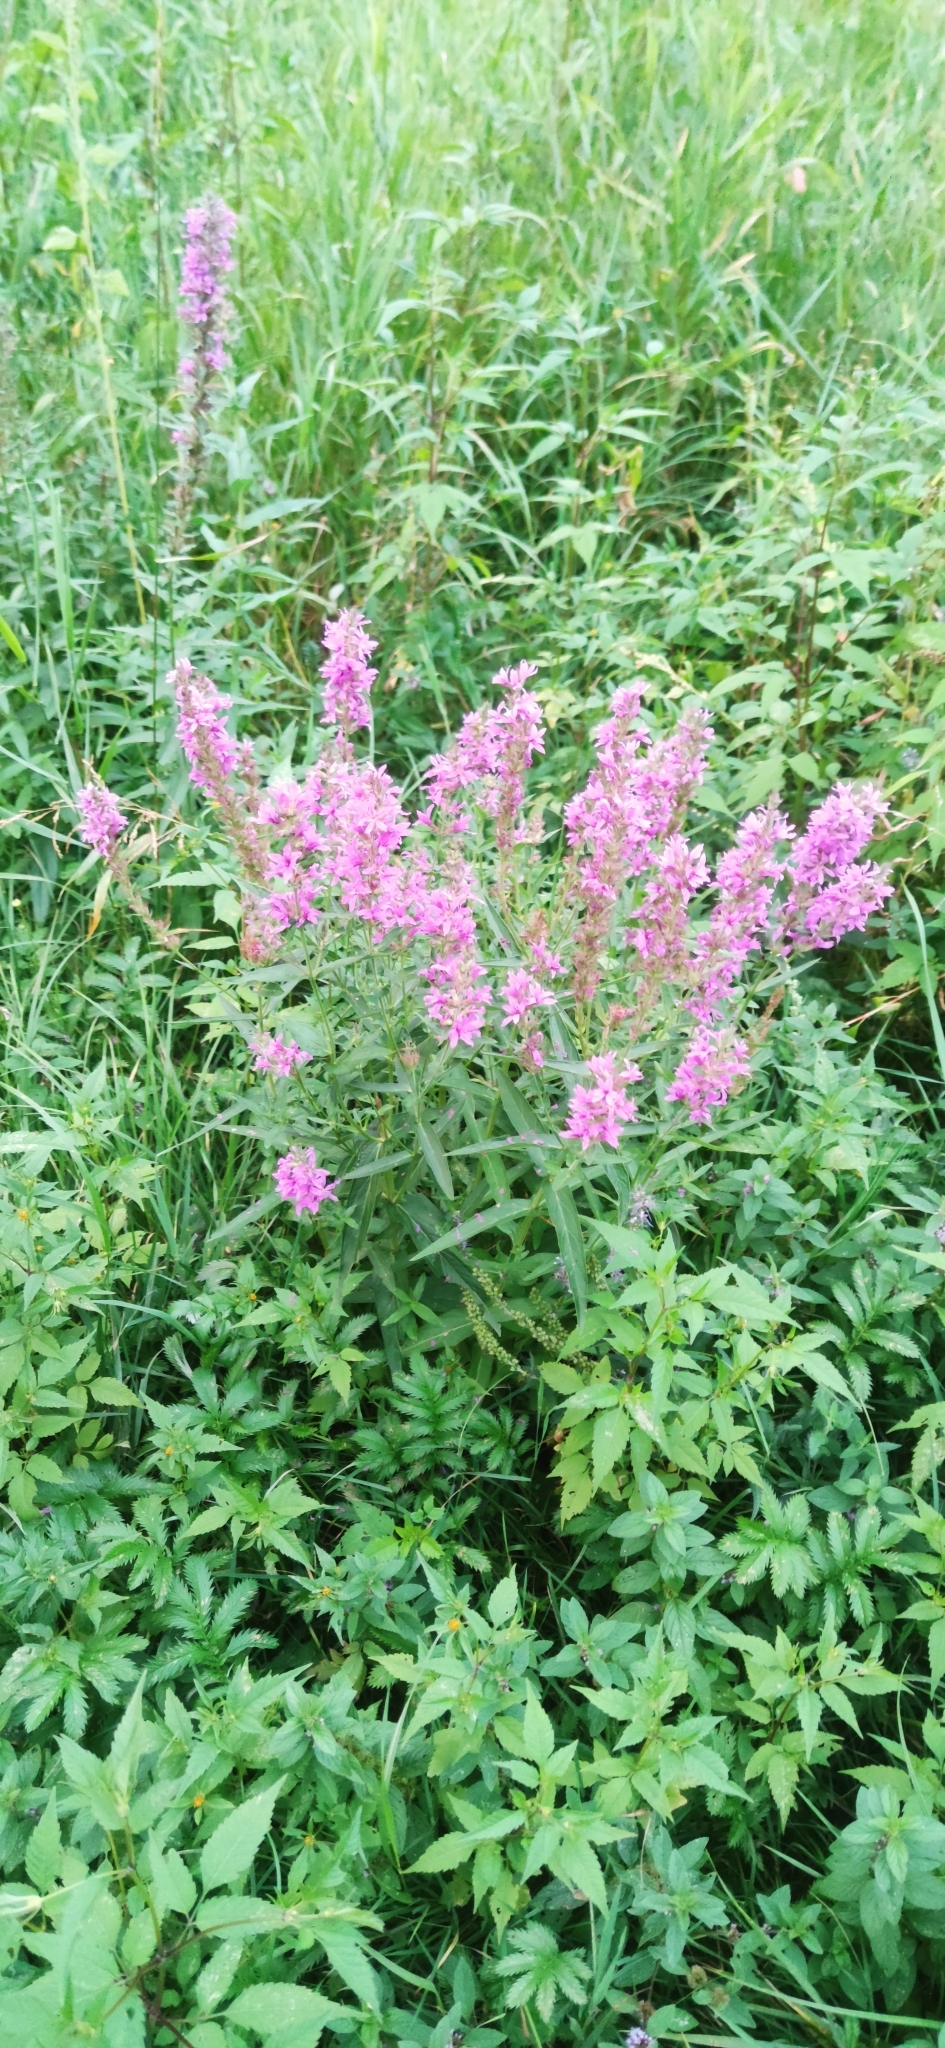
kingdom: Plantae
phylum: Tracheophyta
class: Magnoliopsida
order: Myrtales
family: Lythraceae
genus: Lythrum
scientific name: Lythrum salicaria
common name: Purple loosestrife
